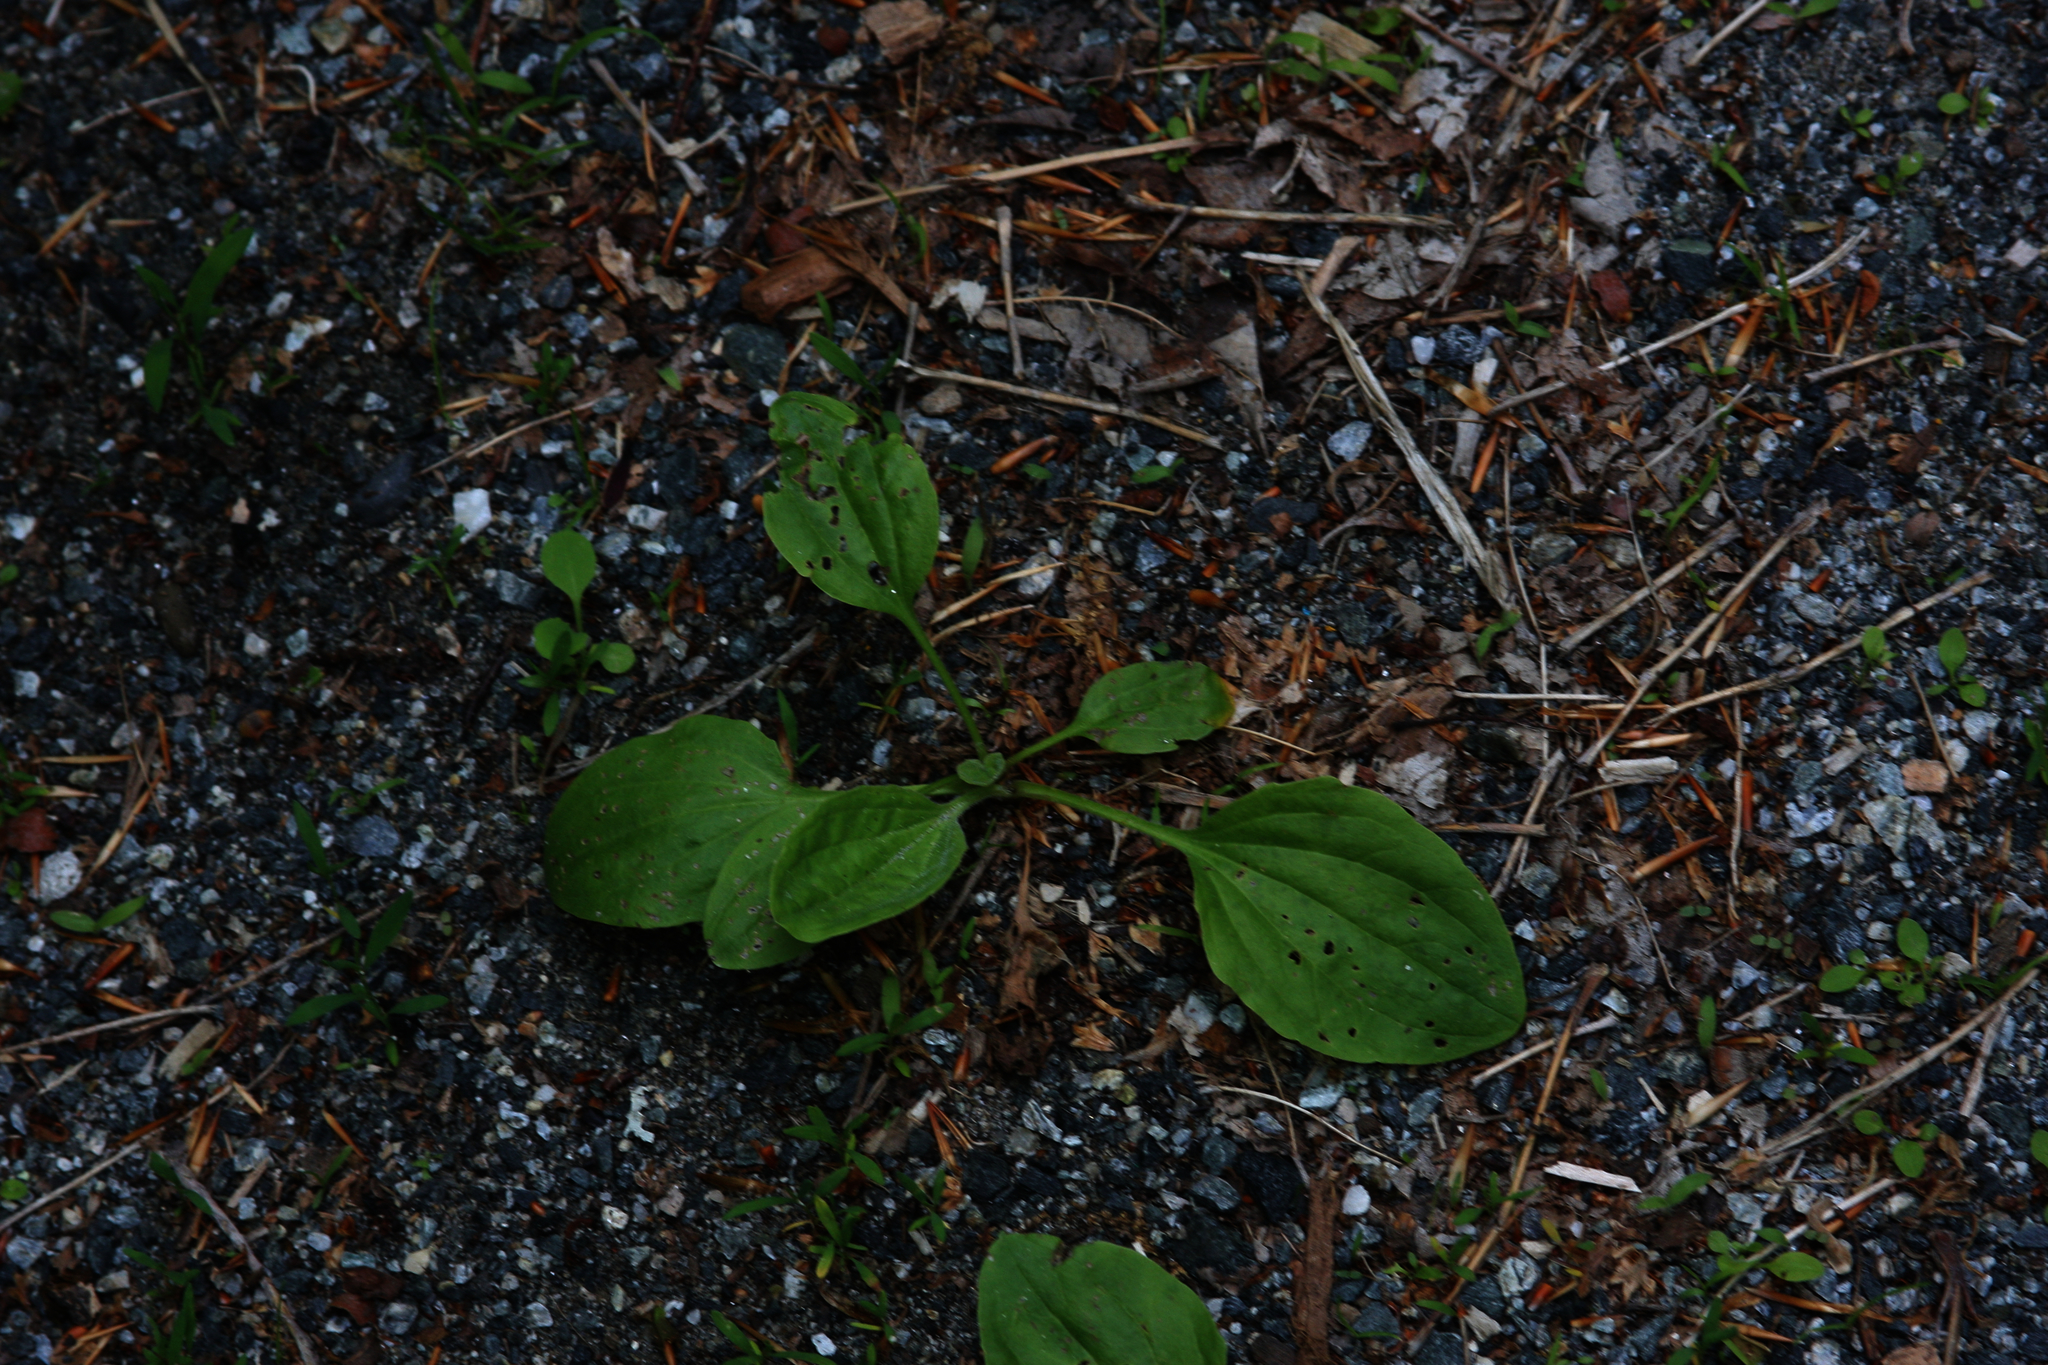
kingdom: Plantae
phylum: Tracheophyta
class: Magnoliopsida
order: Lamiales
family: Plantaginaceae
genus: Plantago
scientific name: Plantago major
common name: Common plantain
